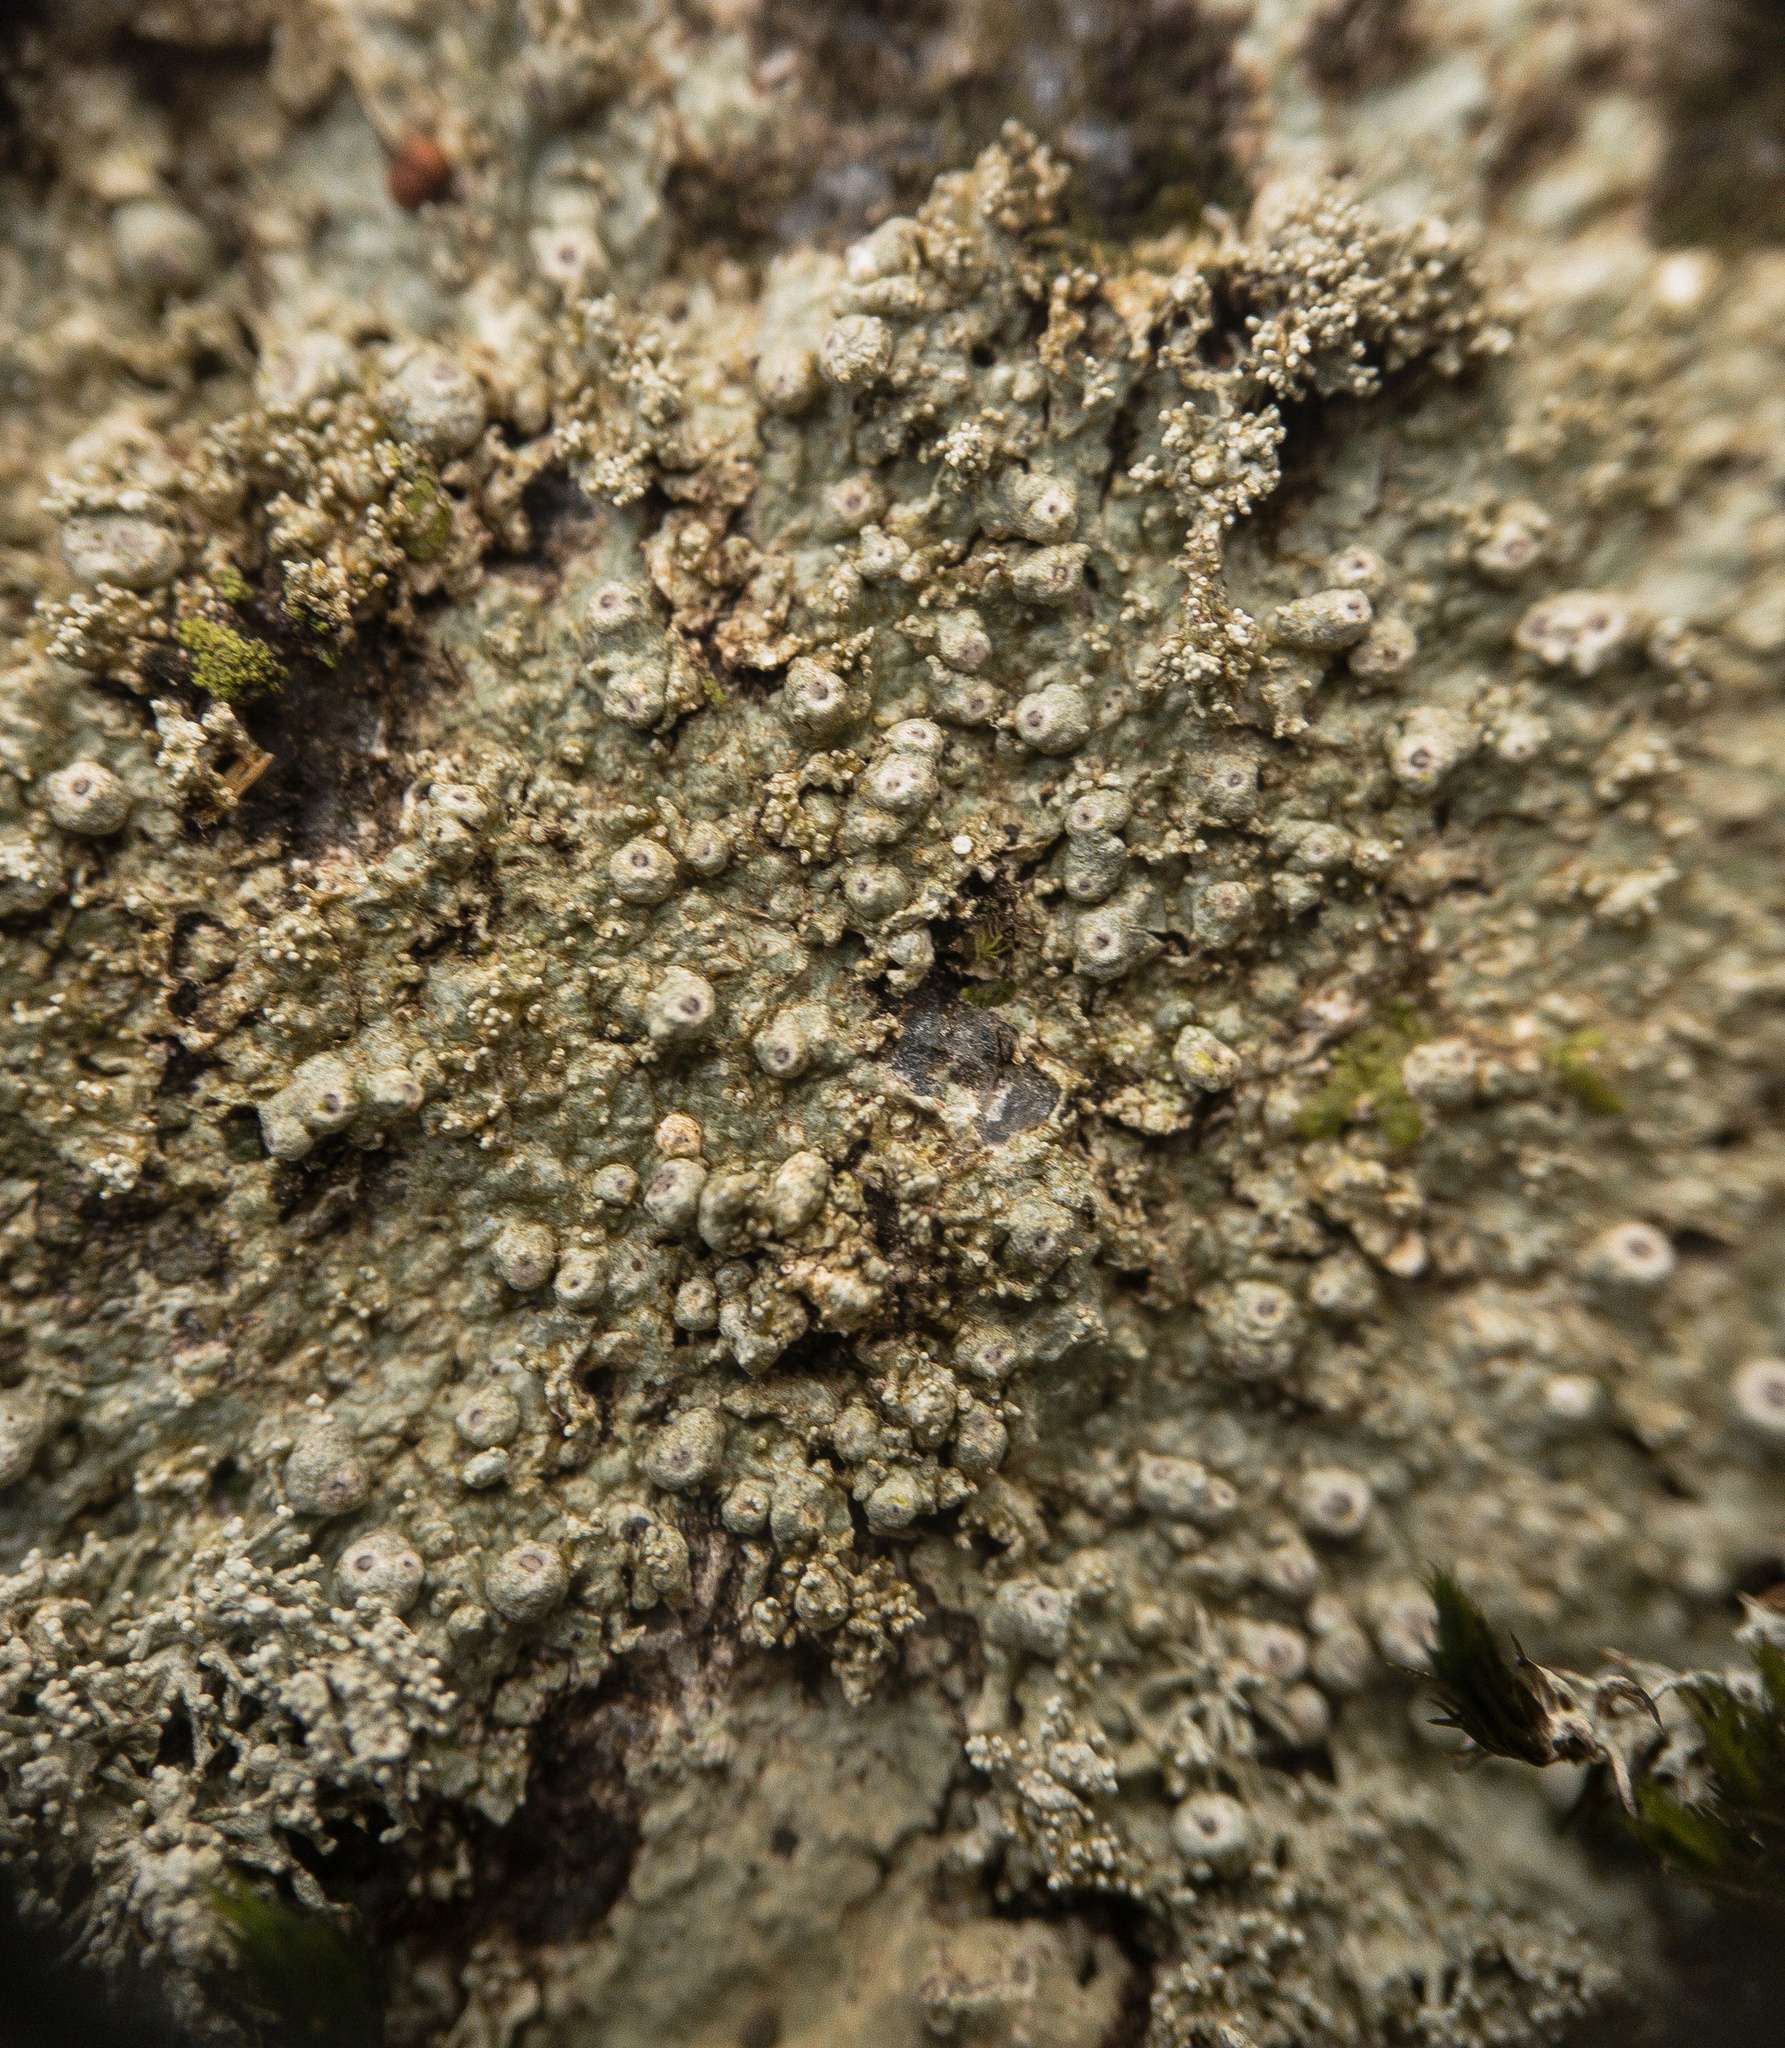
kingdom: Fungi
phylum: Ascomycota
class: Lecanoromycetes
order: Pertusariales
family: Pertusariaceae
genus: Pertusaria
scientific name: Pertusaria globularis
